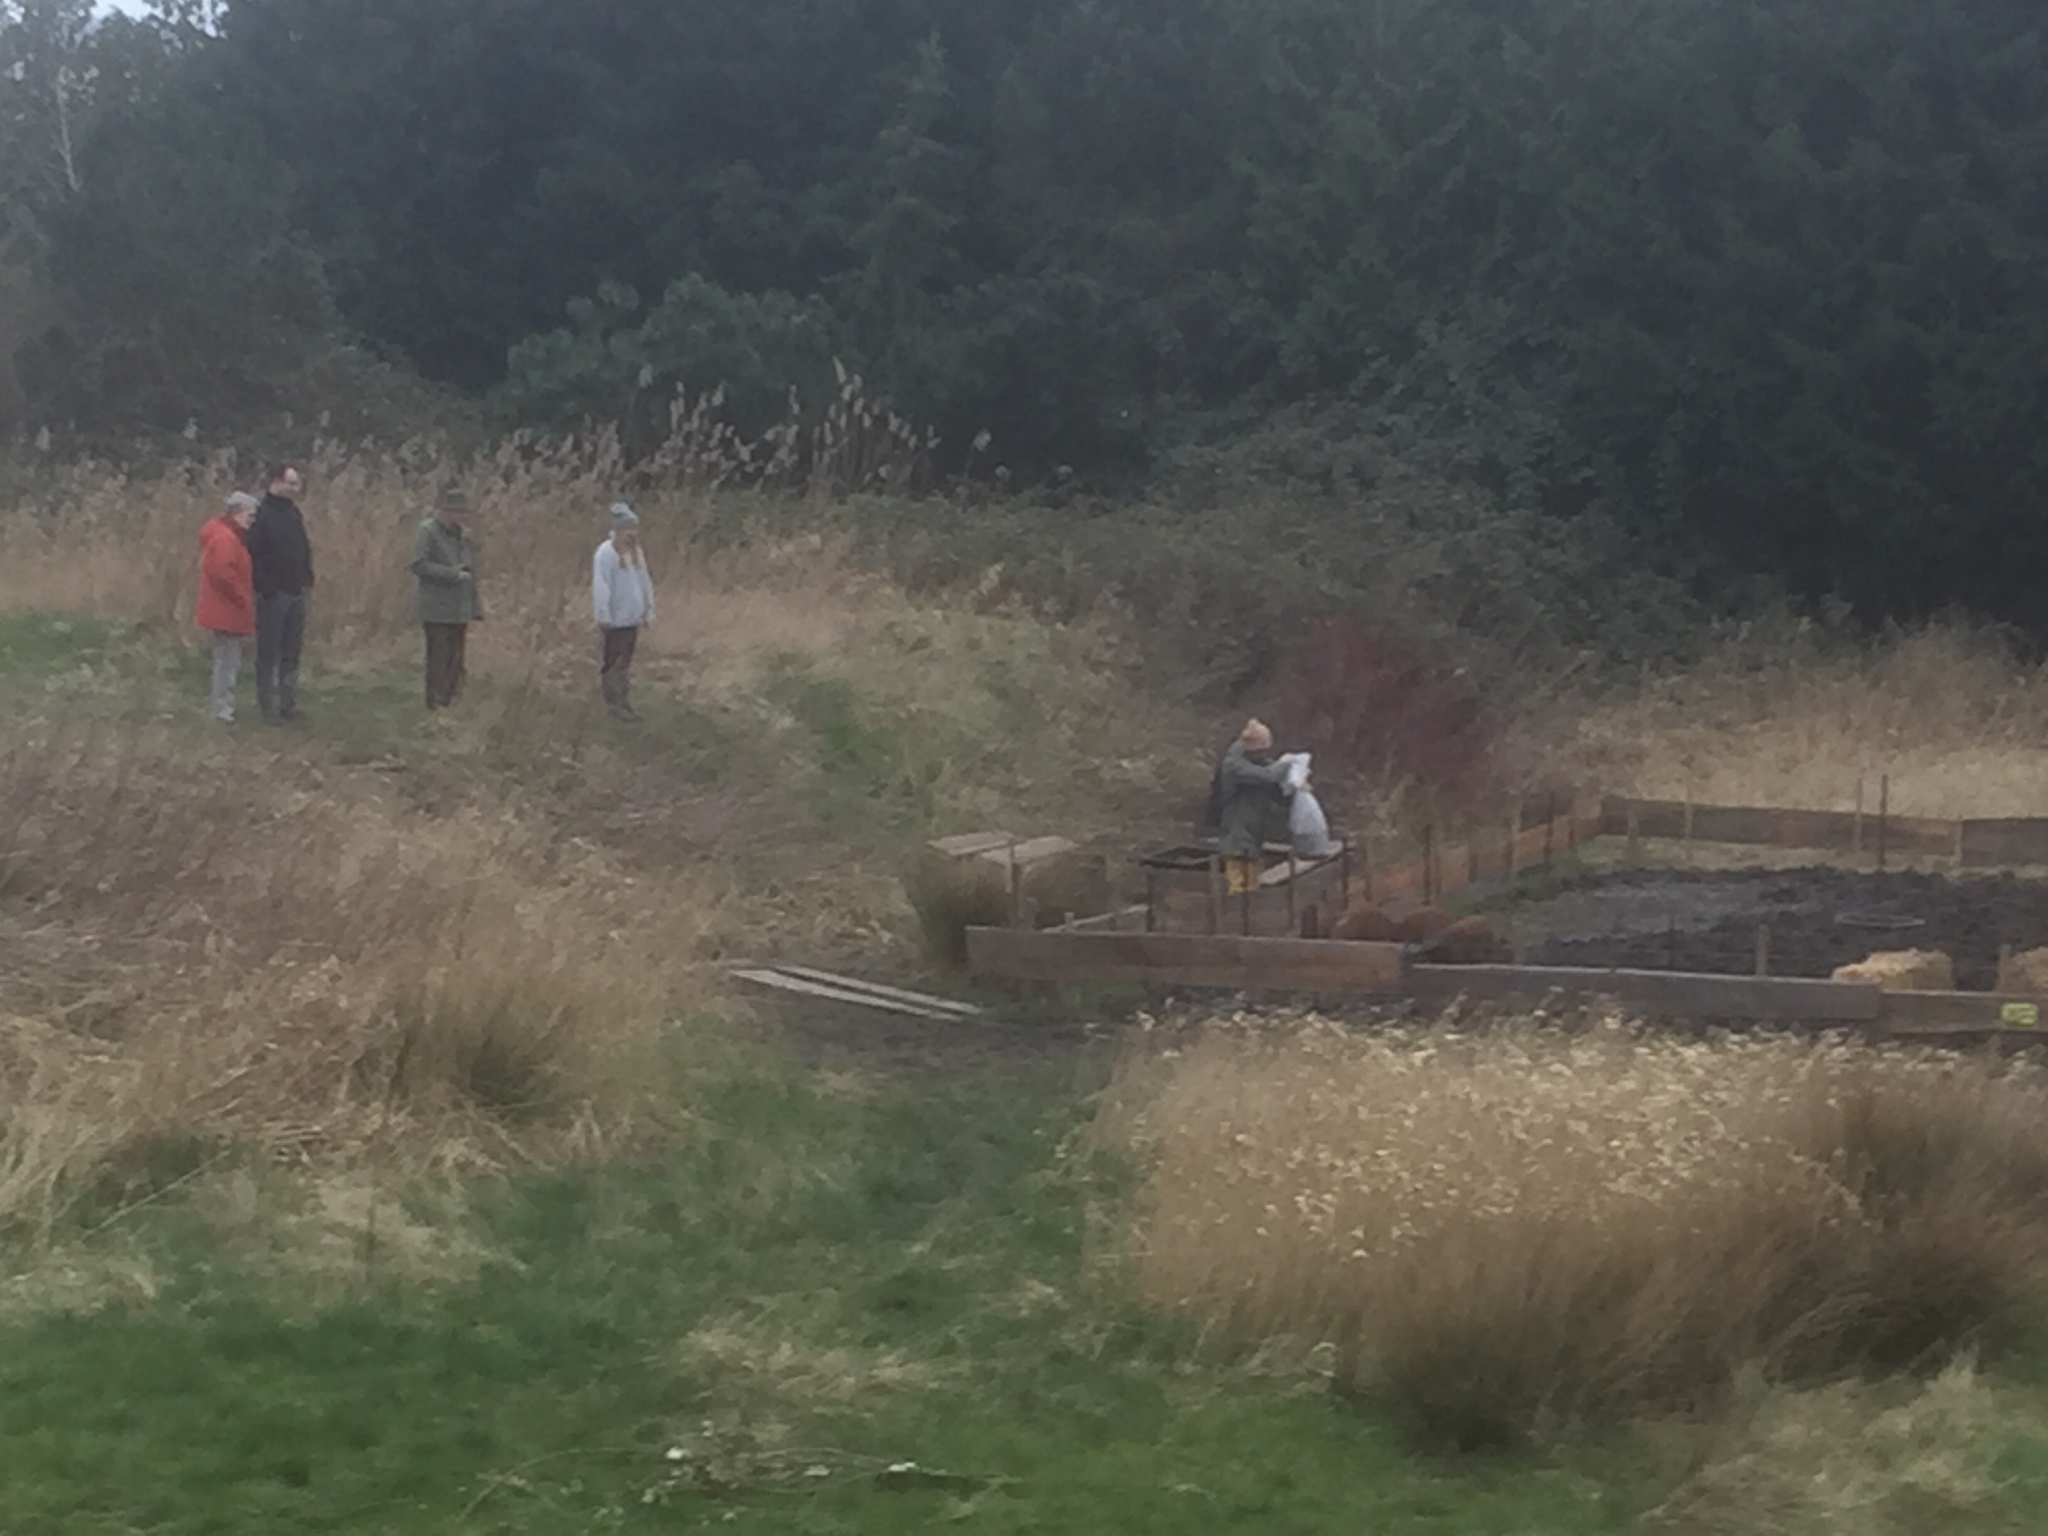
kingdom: Plantae
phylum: Tracheophyta
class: Liliopsida
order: Poales
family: Poaceae
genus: Phragmites
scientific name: Phragmites australis
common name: Common reed
